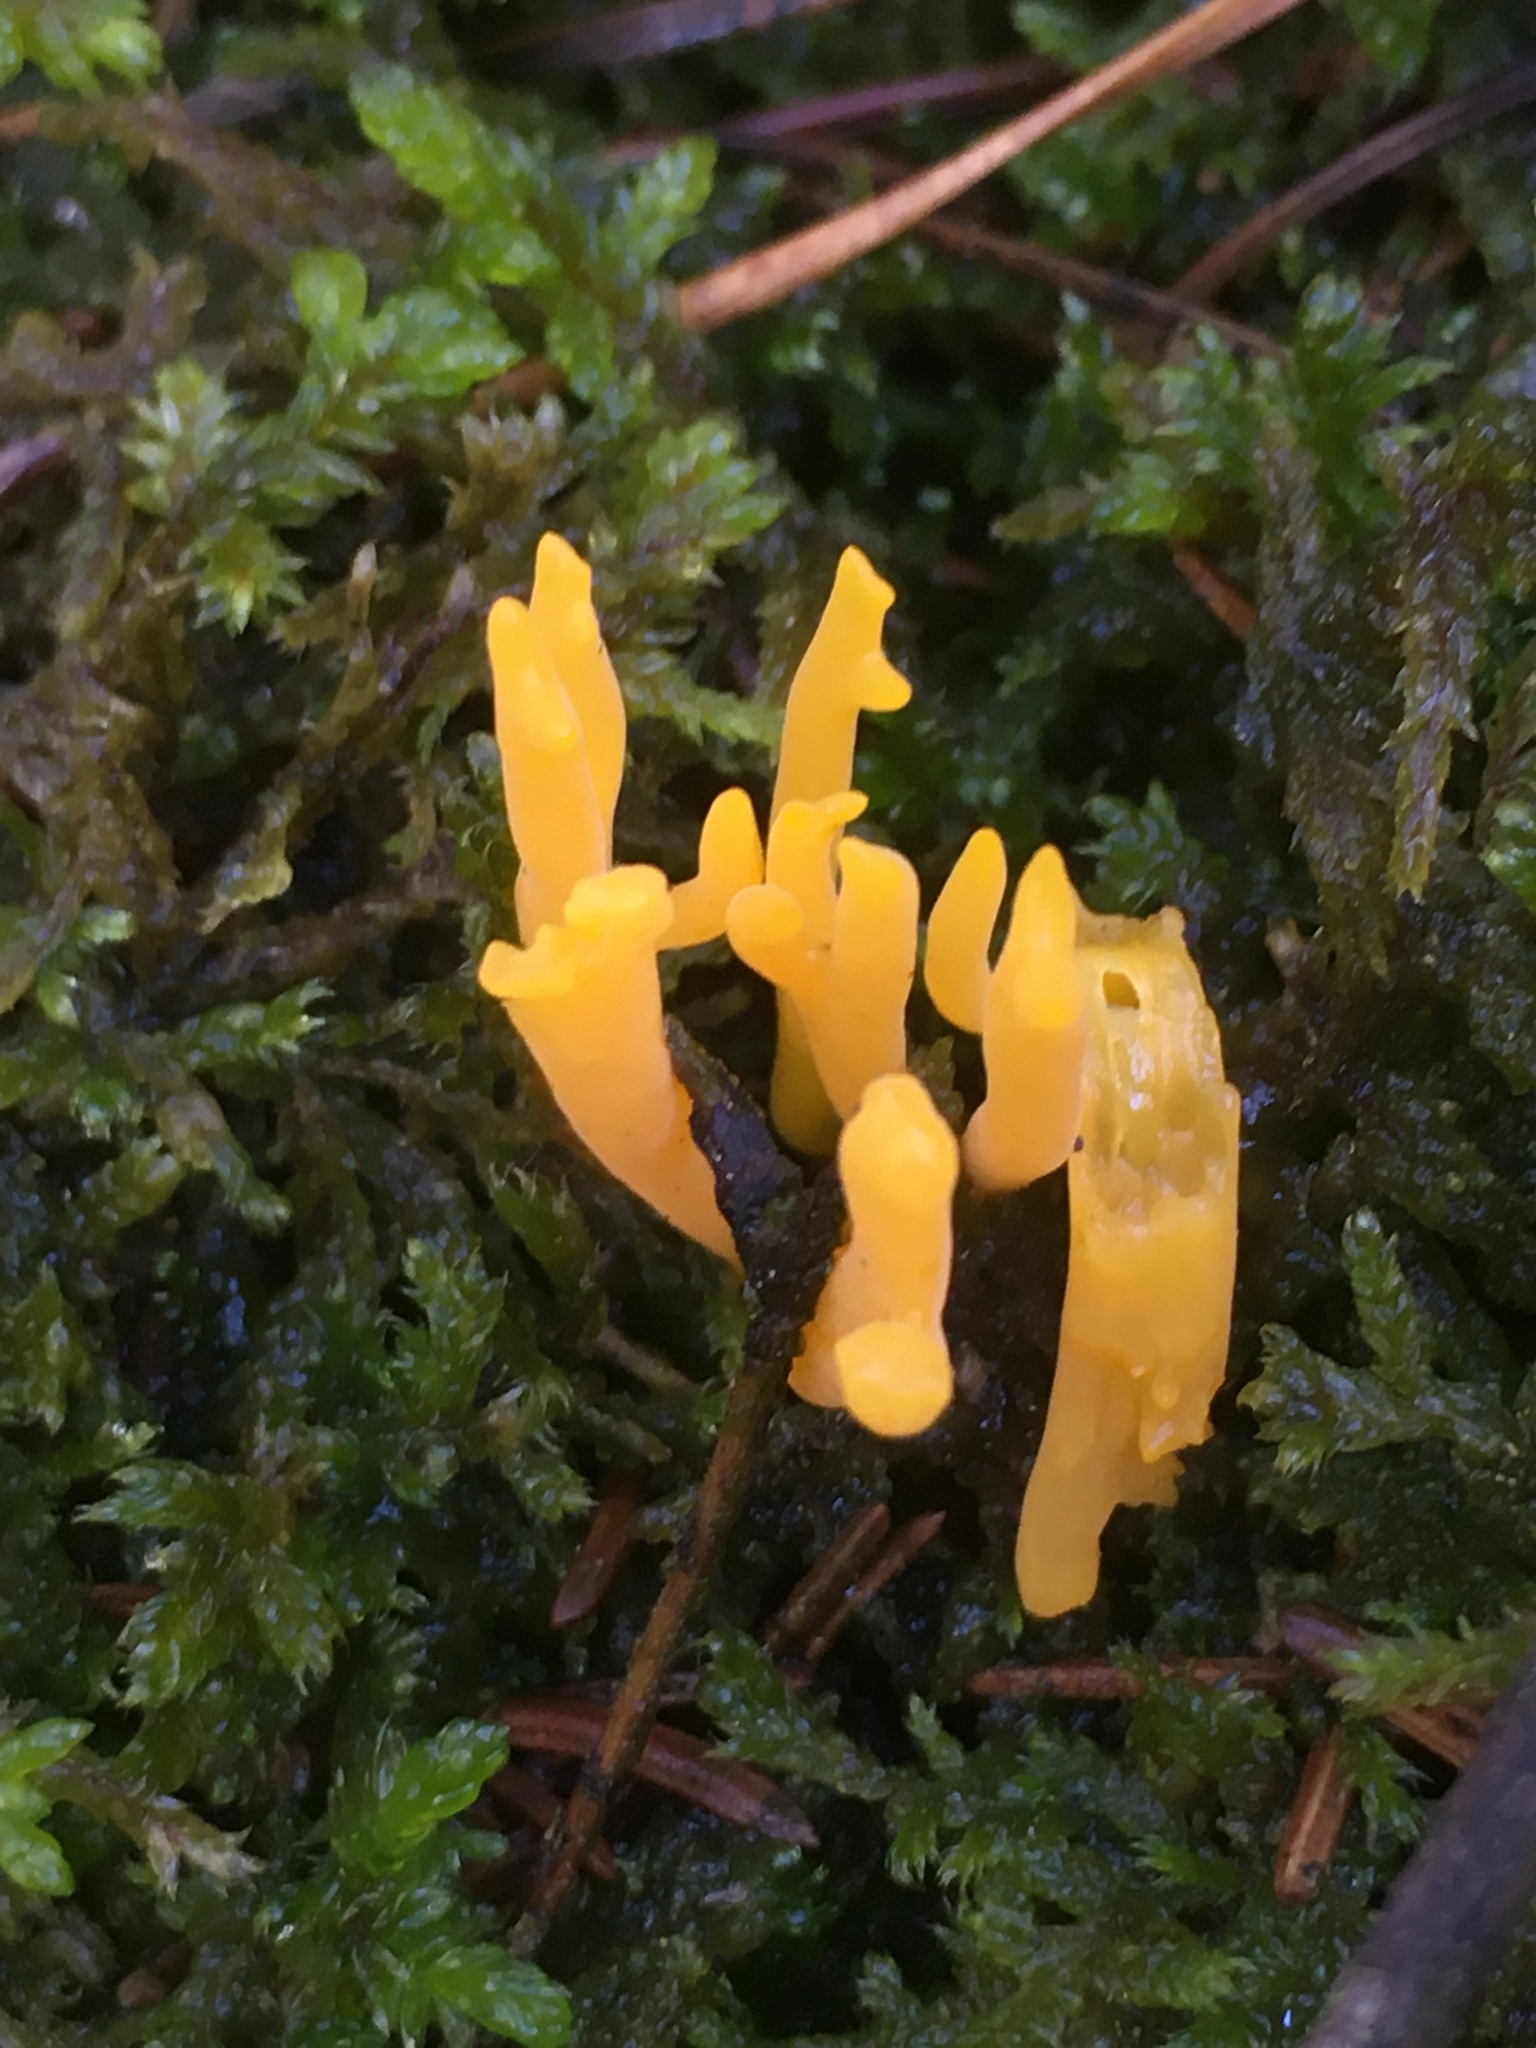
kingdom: Fungi
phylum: Basidiomycota
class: Dacrymycetes
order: Dacrymycetales
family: Dacrymycetaceae
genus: Calocera
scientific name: Calocera viscosa
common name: Yellow stagshorn
